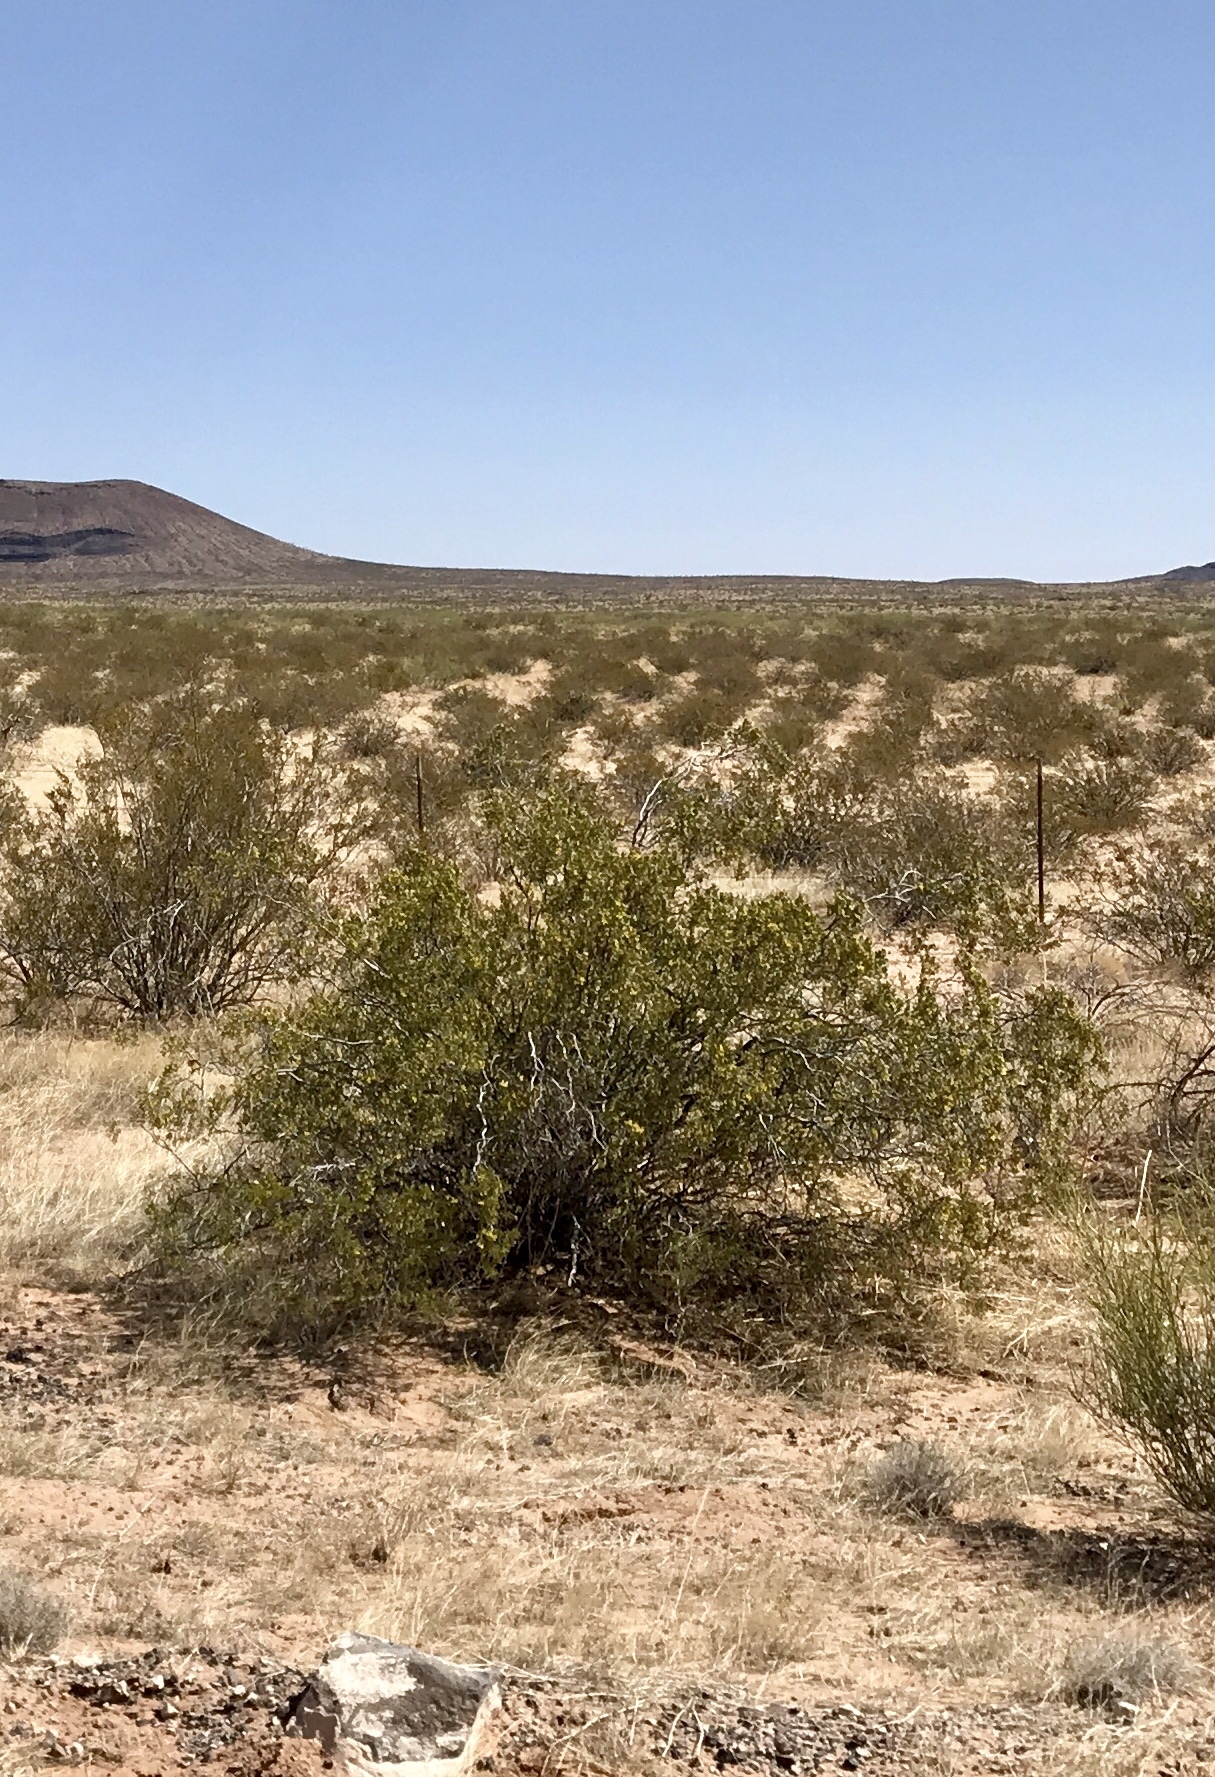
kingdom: Plantae
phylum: Tracheophyta
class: Magnoliopsida
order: Zygophyllales
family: Zygophyllaceae
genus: Larrea
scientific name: Larrea tridentata
